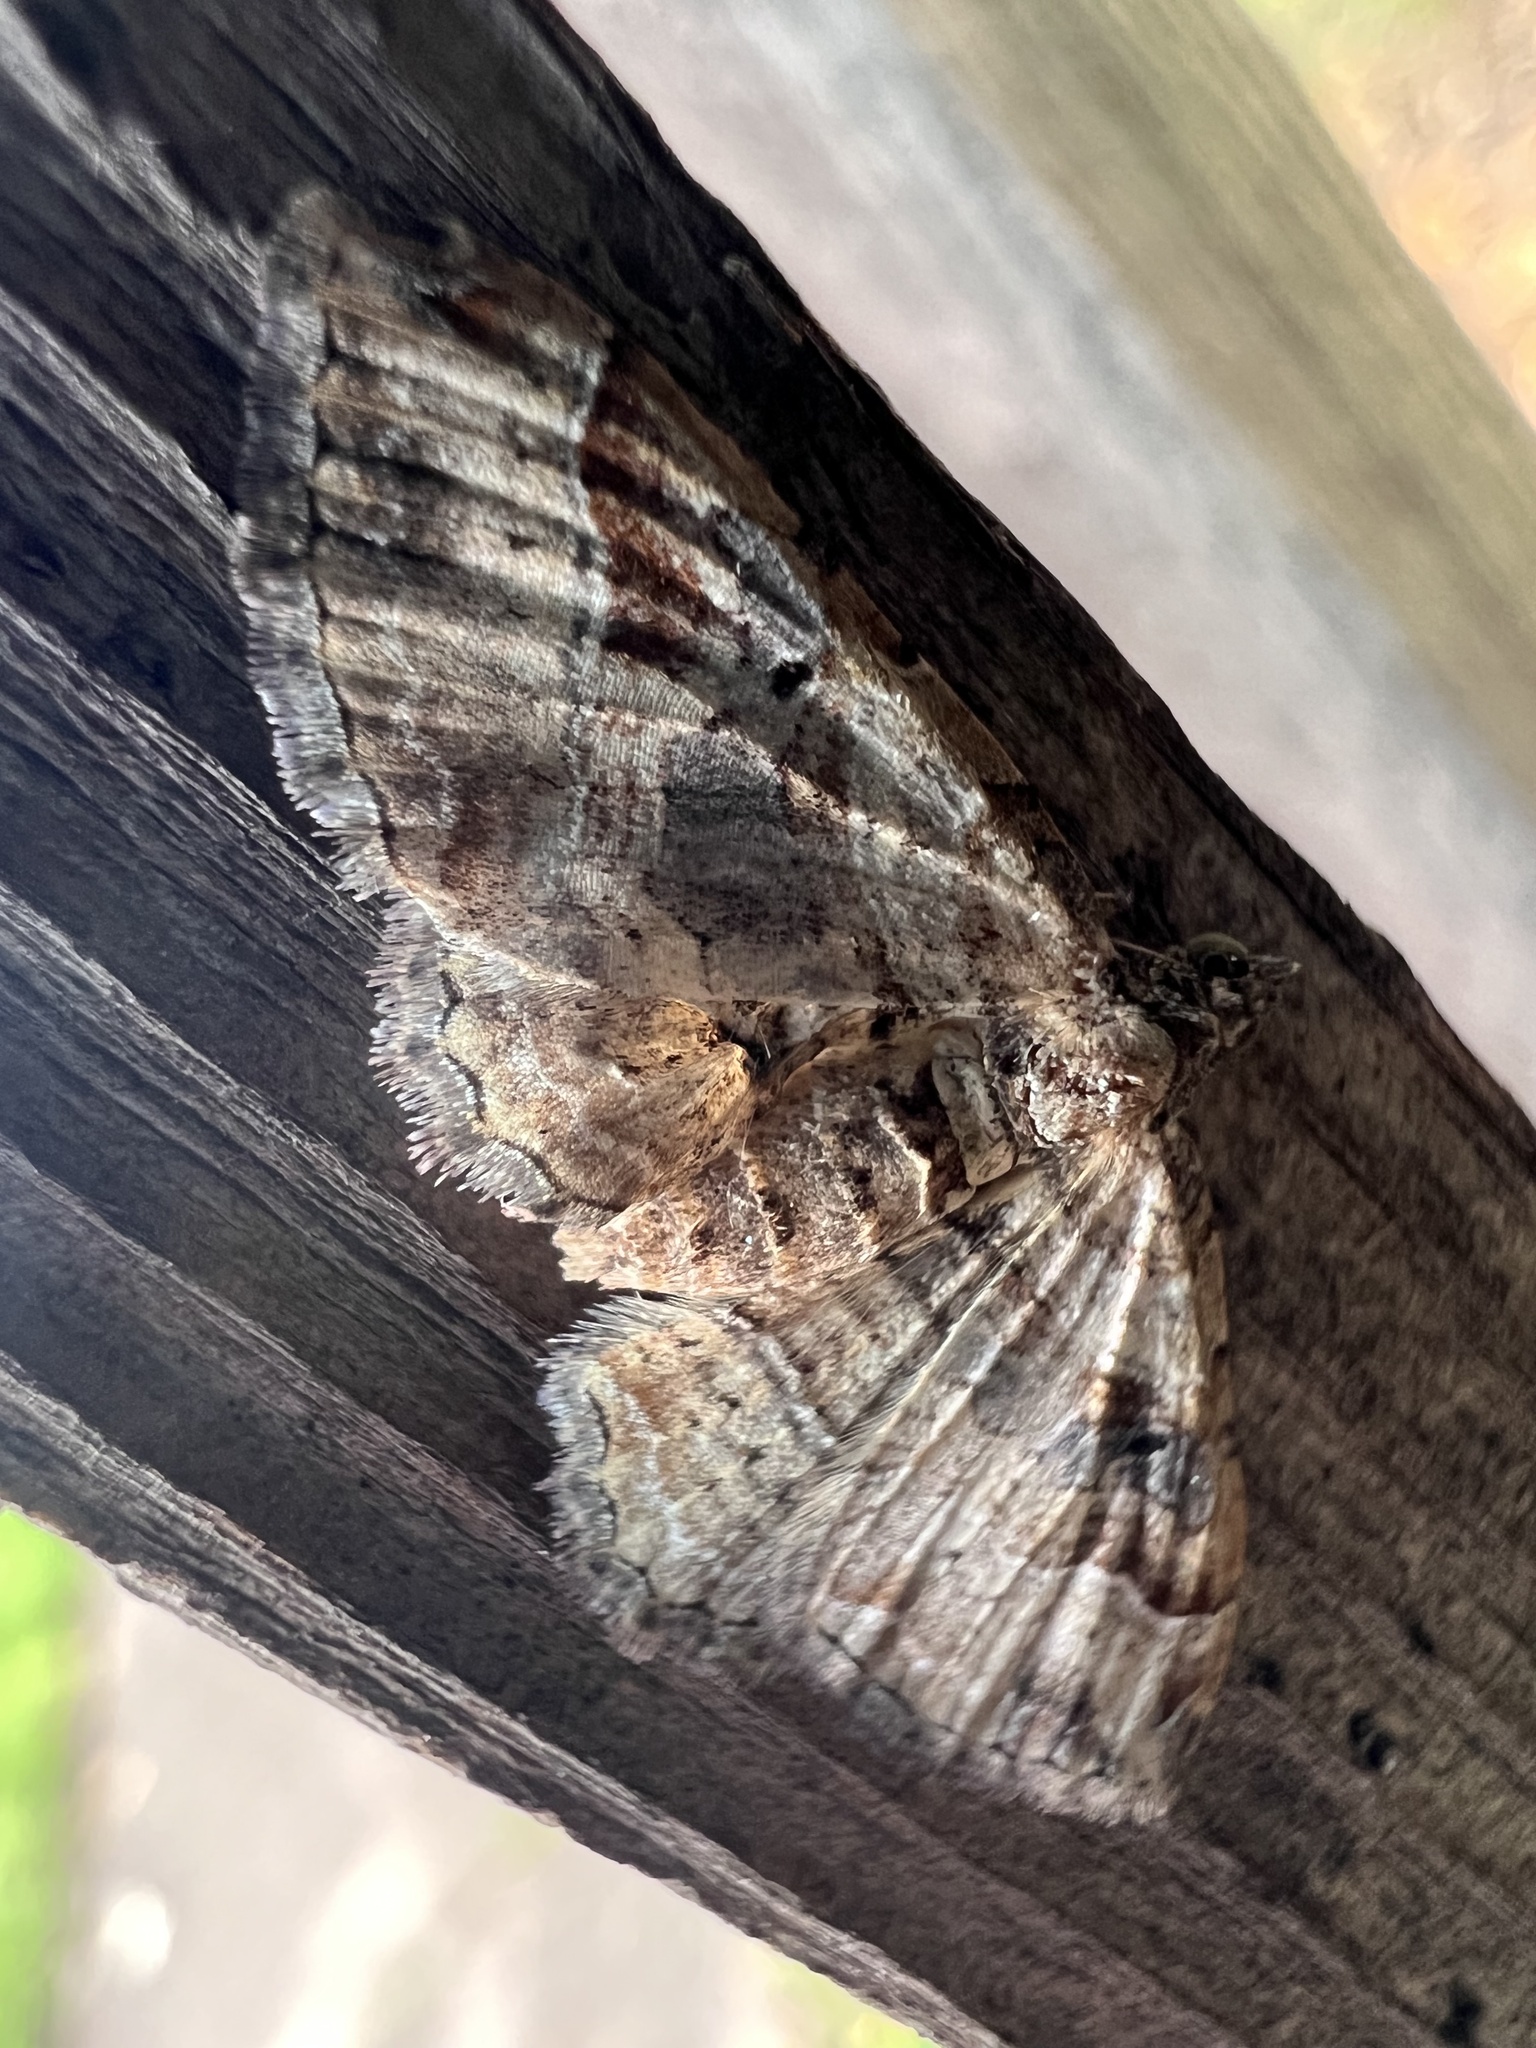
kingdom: Animalia
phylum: Arthropoda
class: Insecta
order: Lepidoptera
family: Geometridae
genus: Costaconvexa
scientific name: Costaconvexa centrostrigaria
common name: Bent-line carpet
